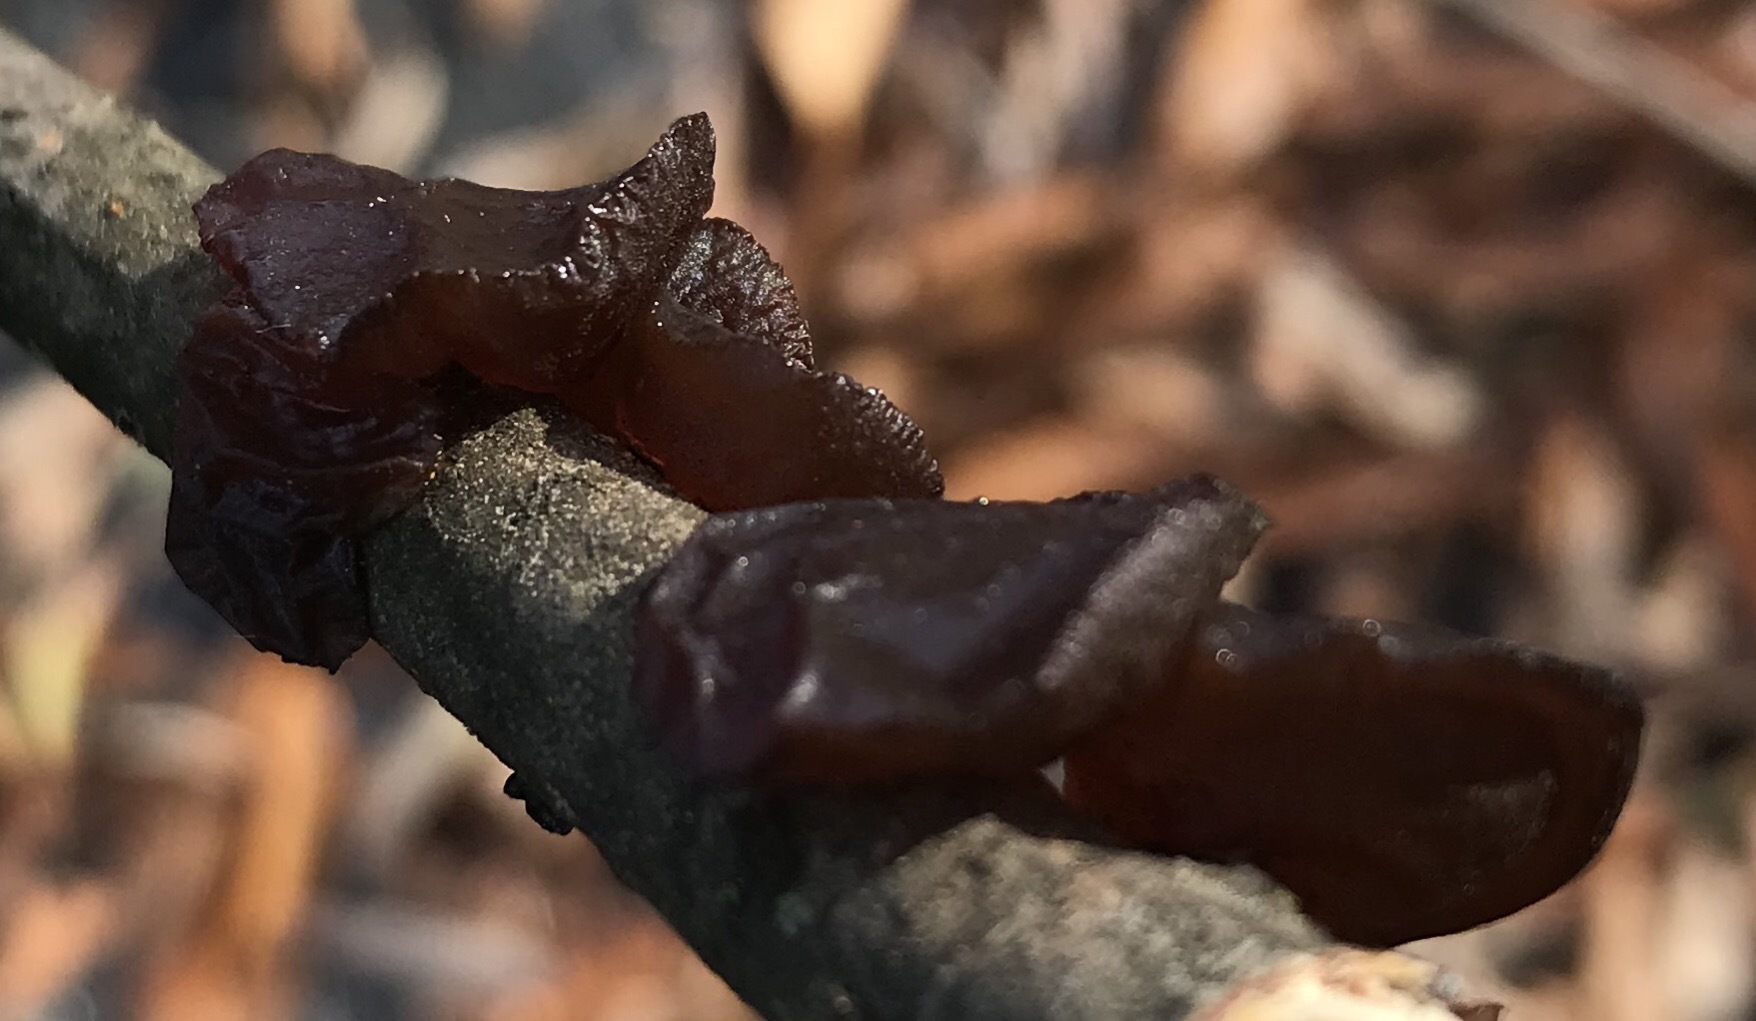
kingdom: Fungi
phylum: Basidiomycota
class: Agaricomycetes
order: Auriculariales
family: Auriculariaceae
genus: Exidia
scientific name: Exidia
